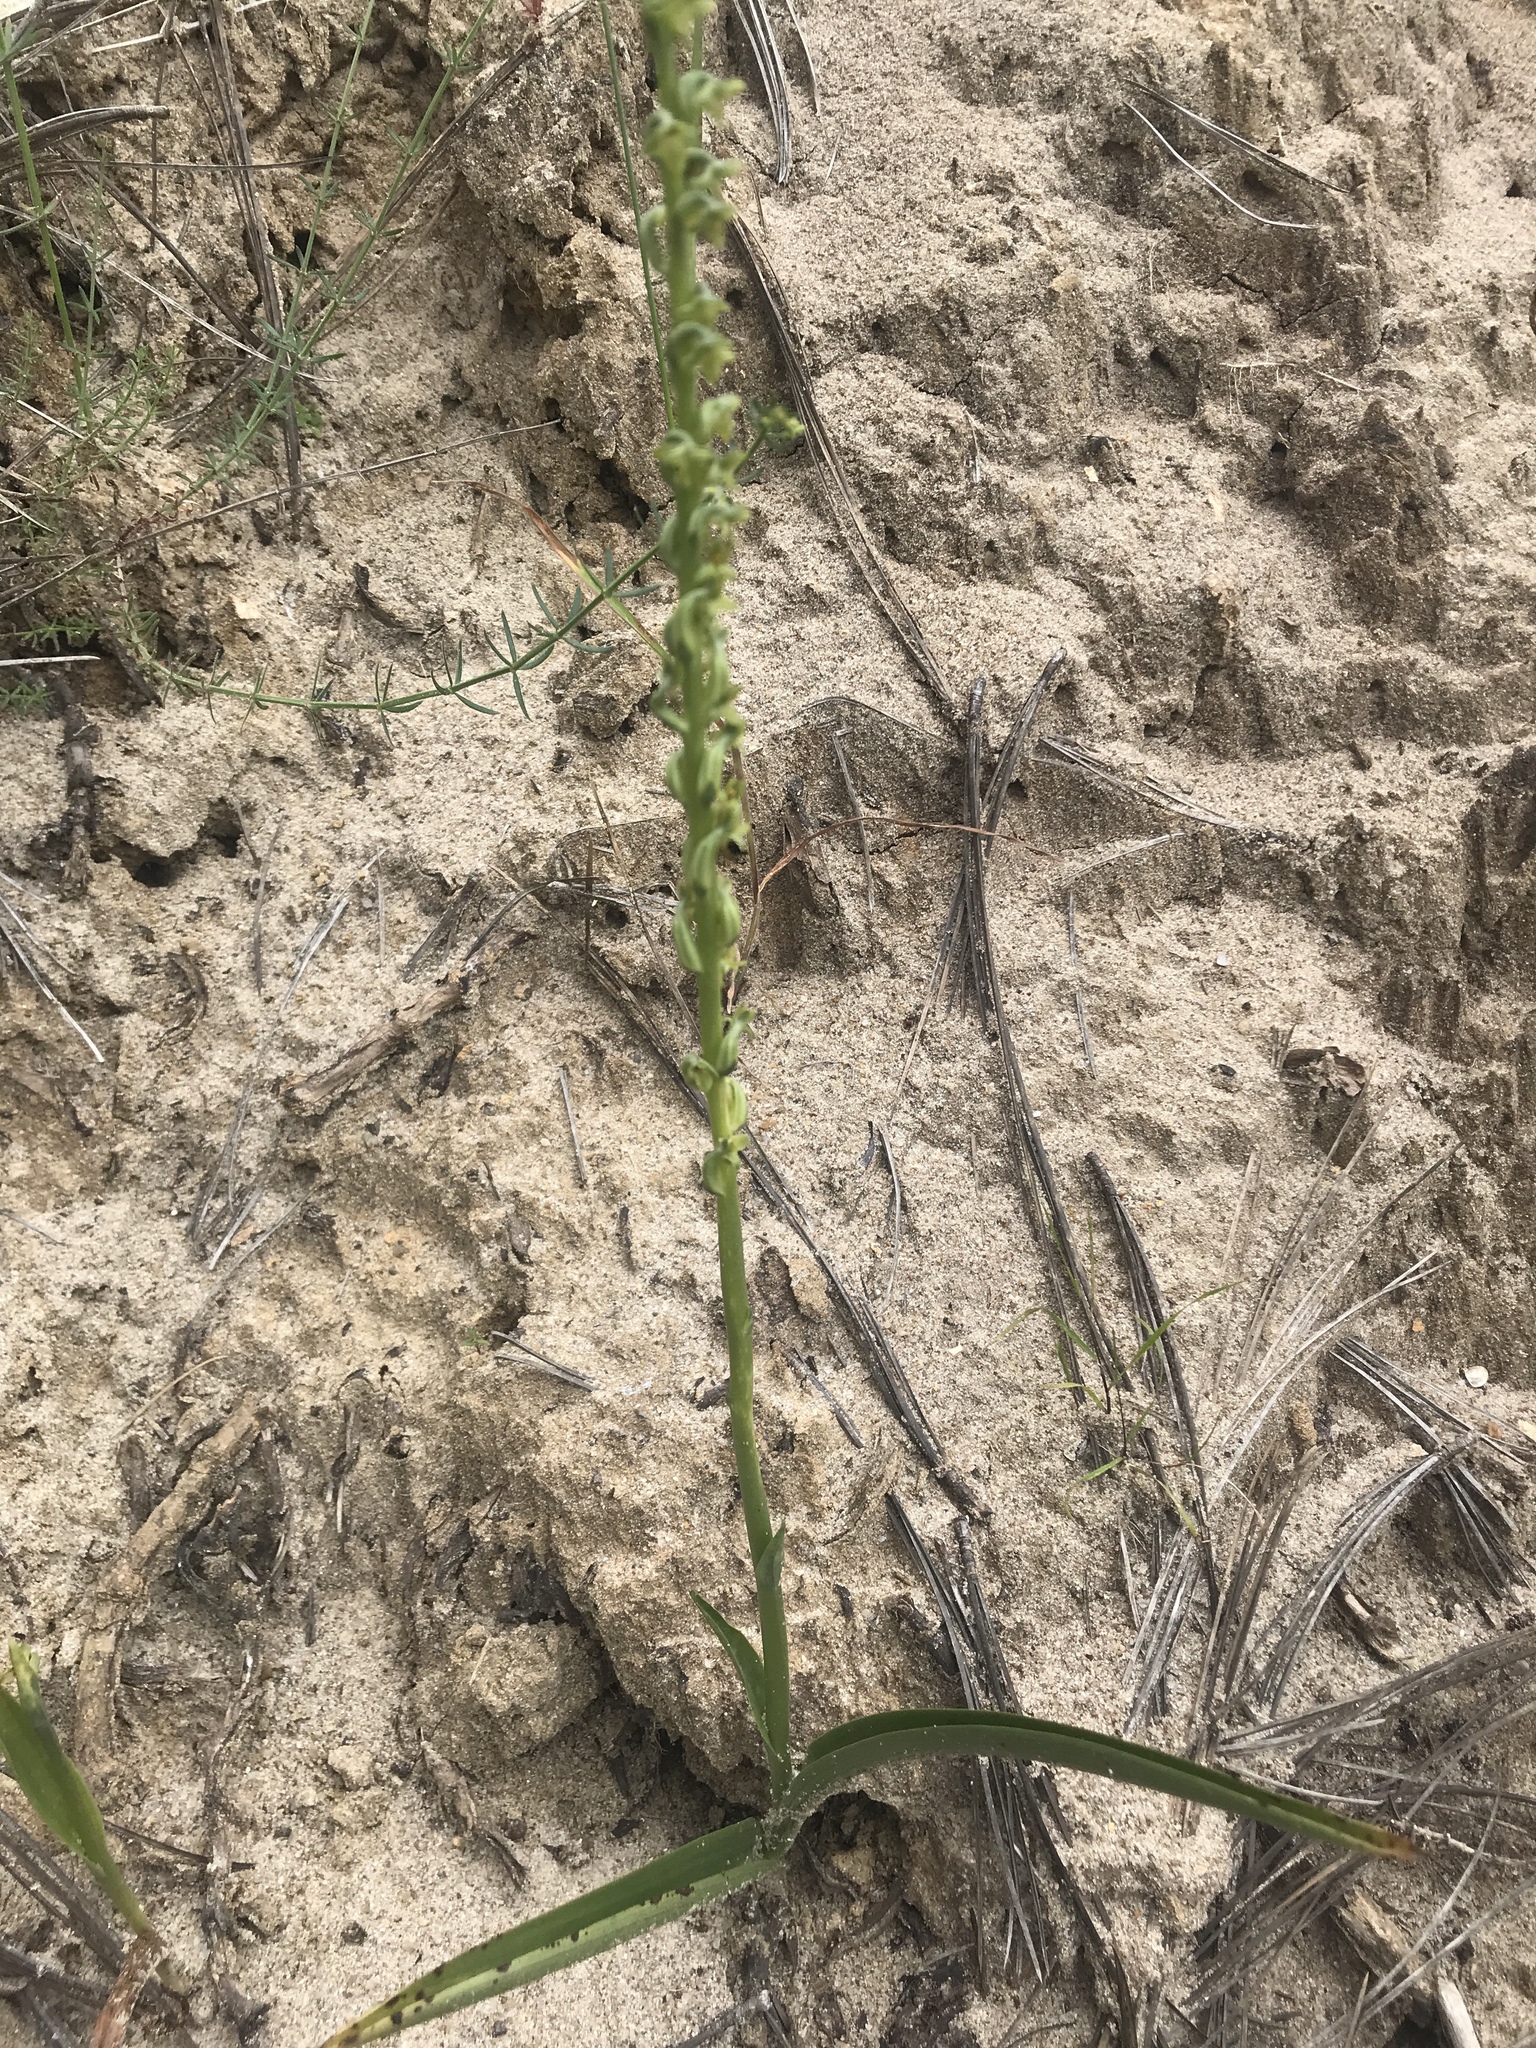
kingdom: Plantae
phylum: Tracheophyta
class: Liliopsida
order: Asparagales
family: Orchidaceae
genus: Platanthera
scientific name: Platanthera cooperi
